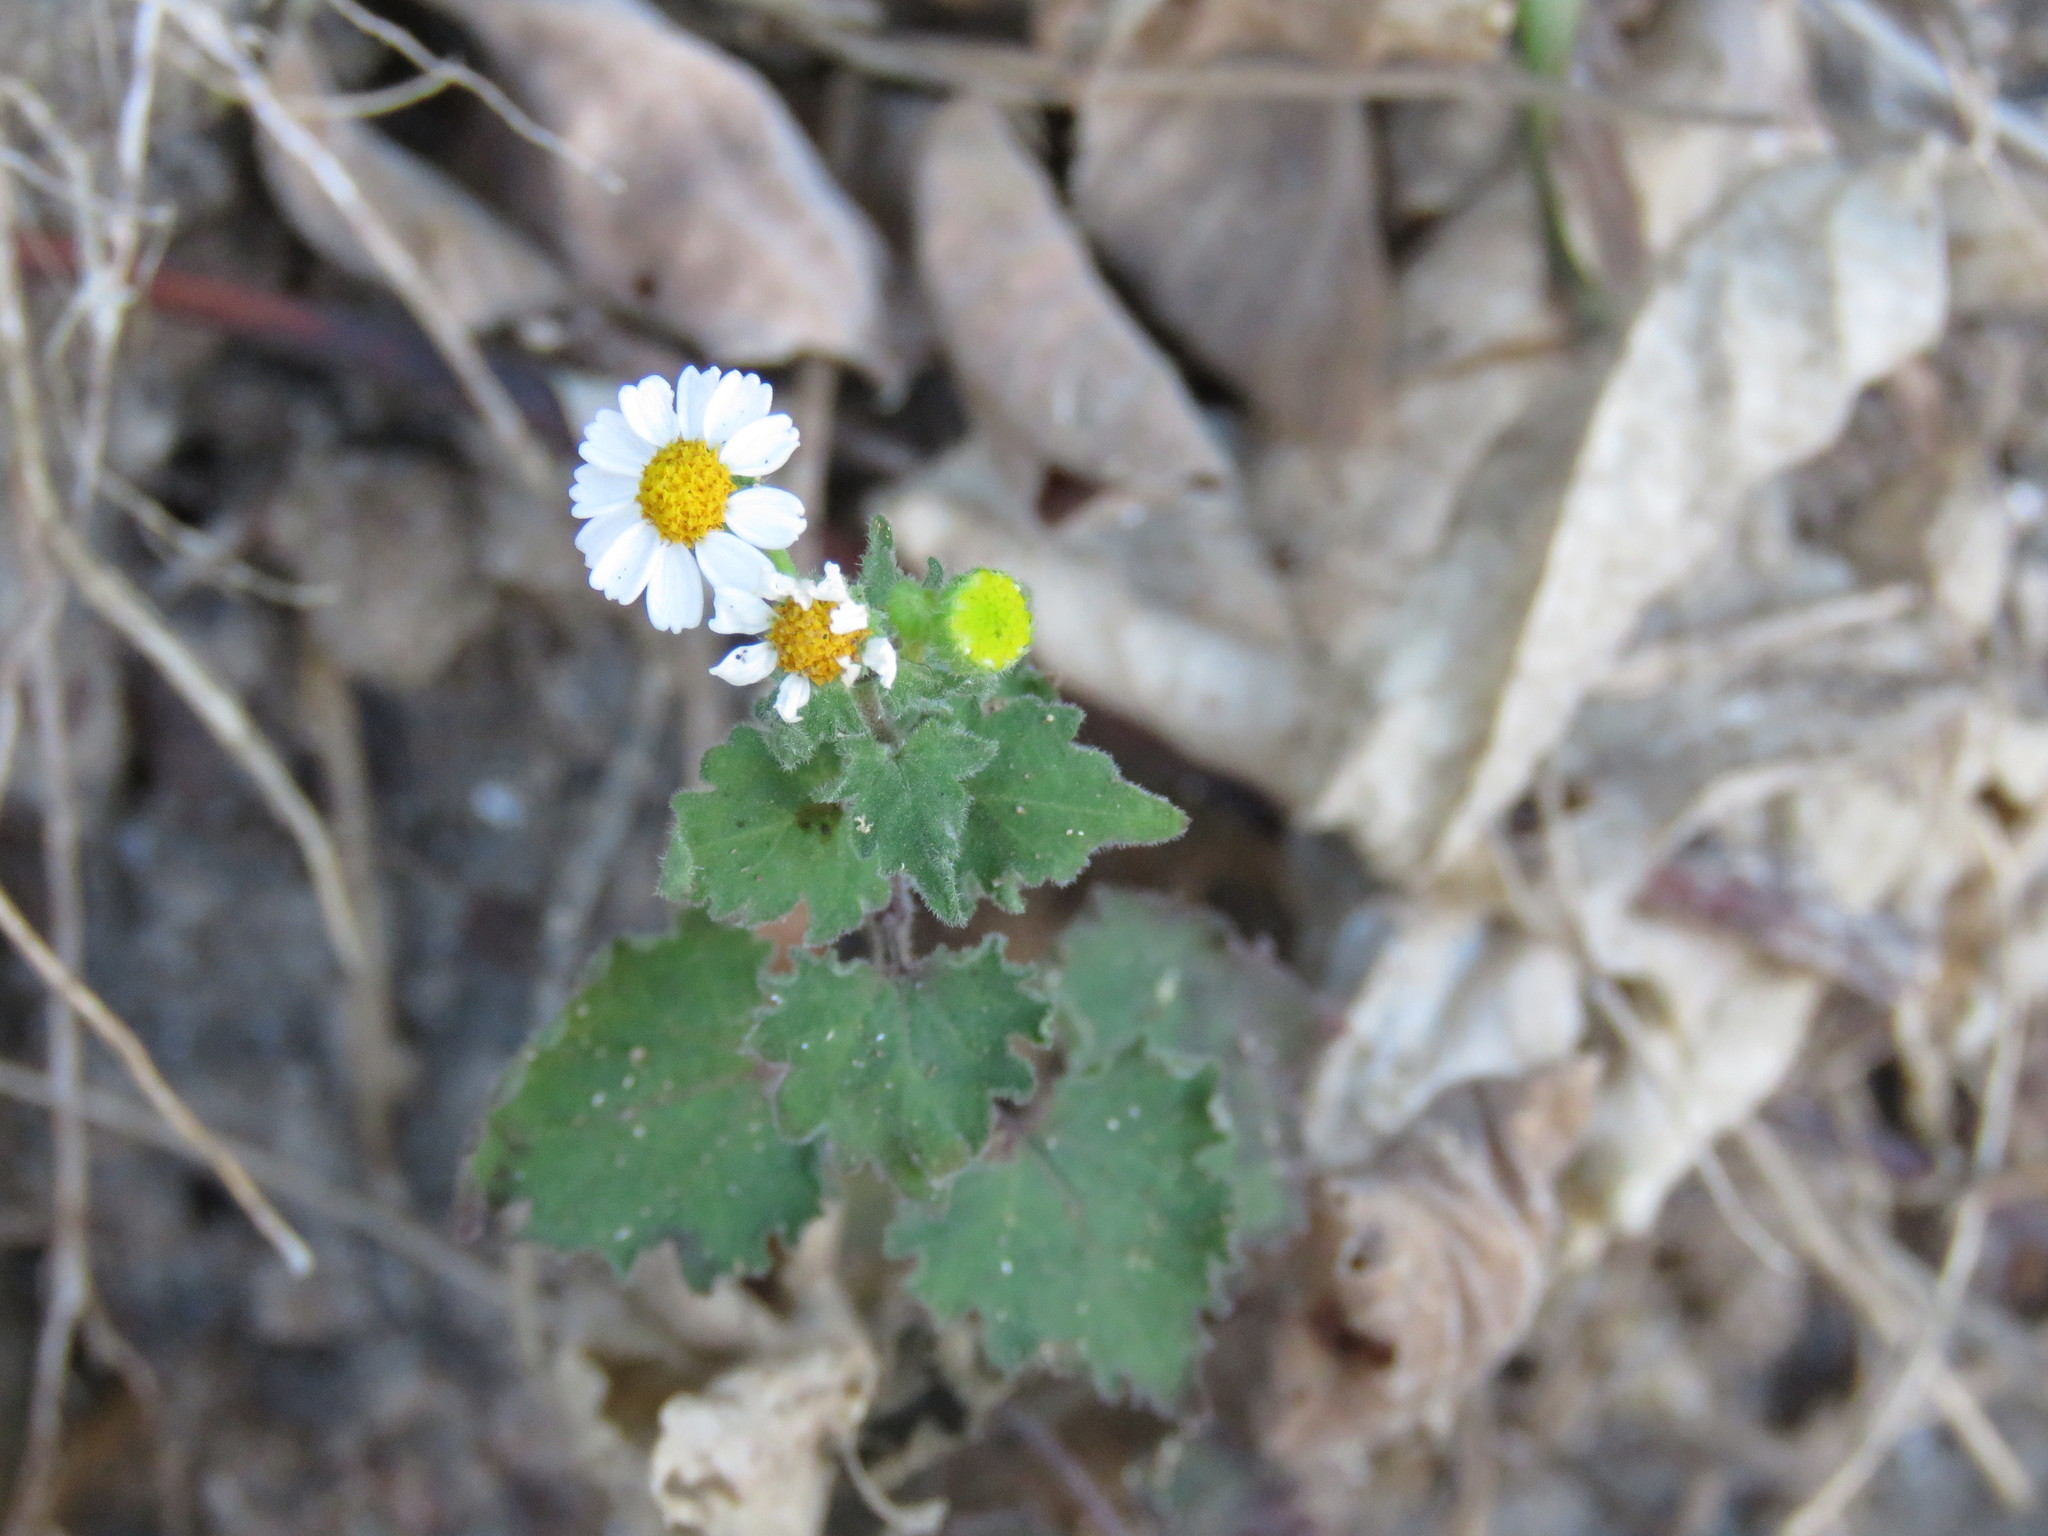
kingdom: Plantae
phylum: Tracheophyta
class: Magnoliopsida
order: Asterales
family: Asteraceae
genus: Galinsogeopsis
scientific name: Galinsogeopsis spilanthoides
